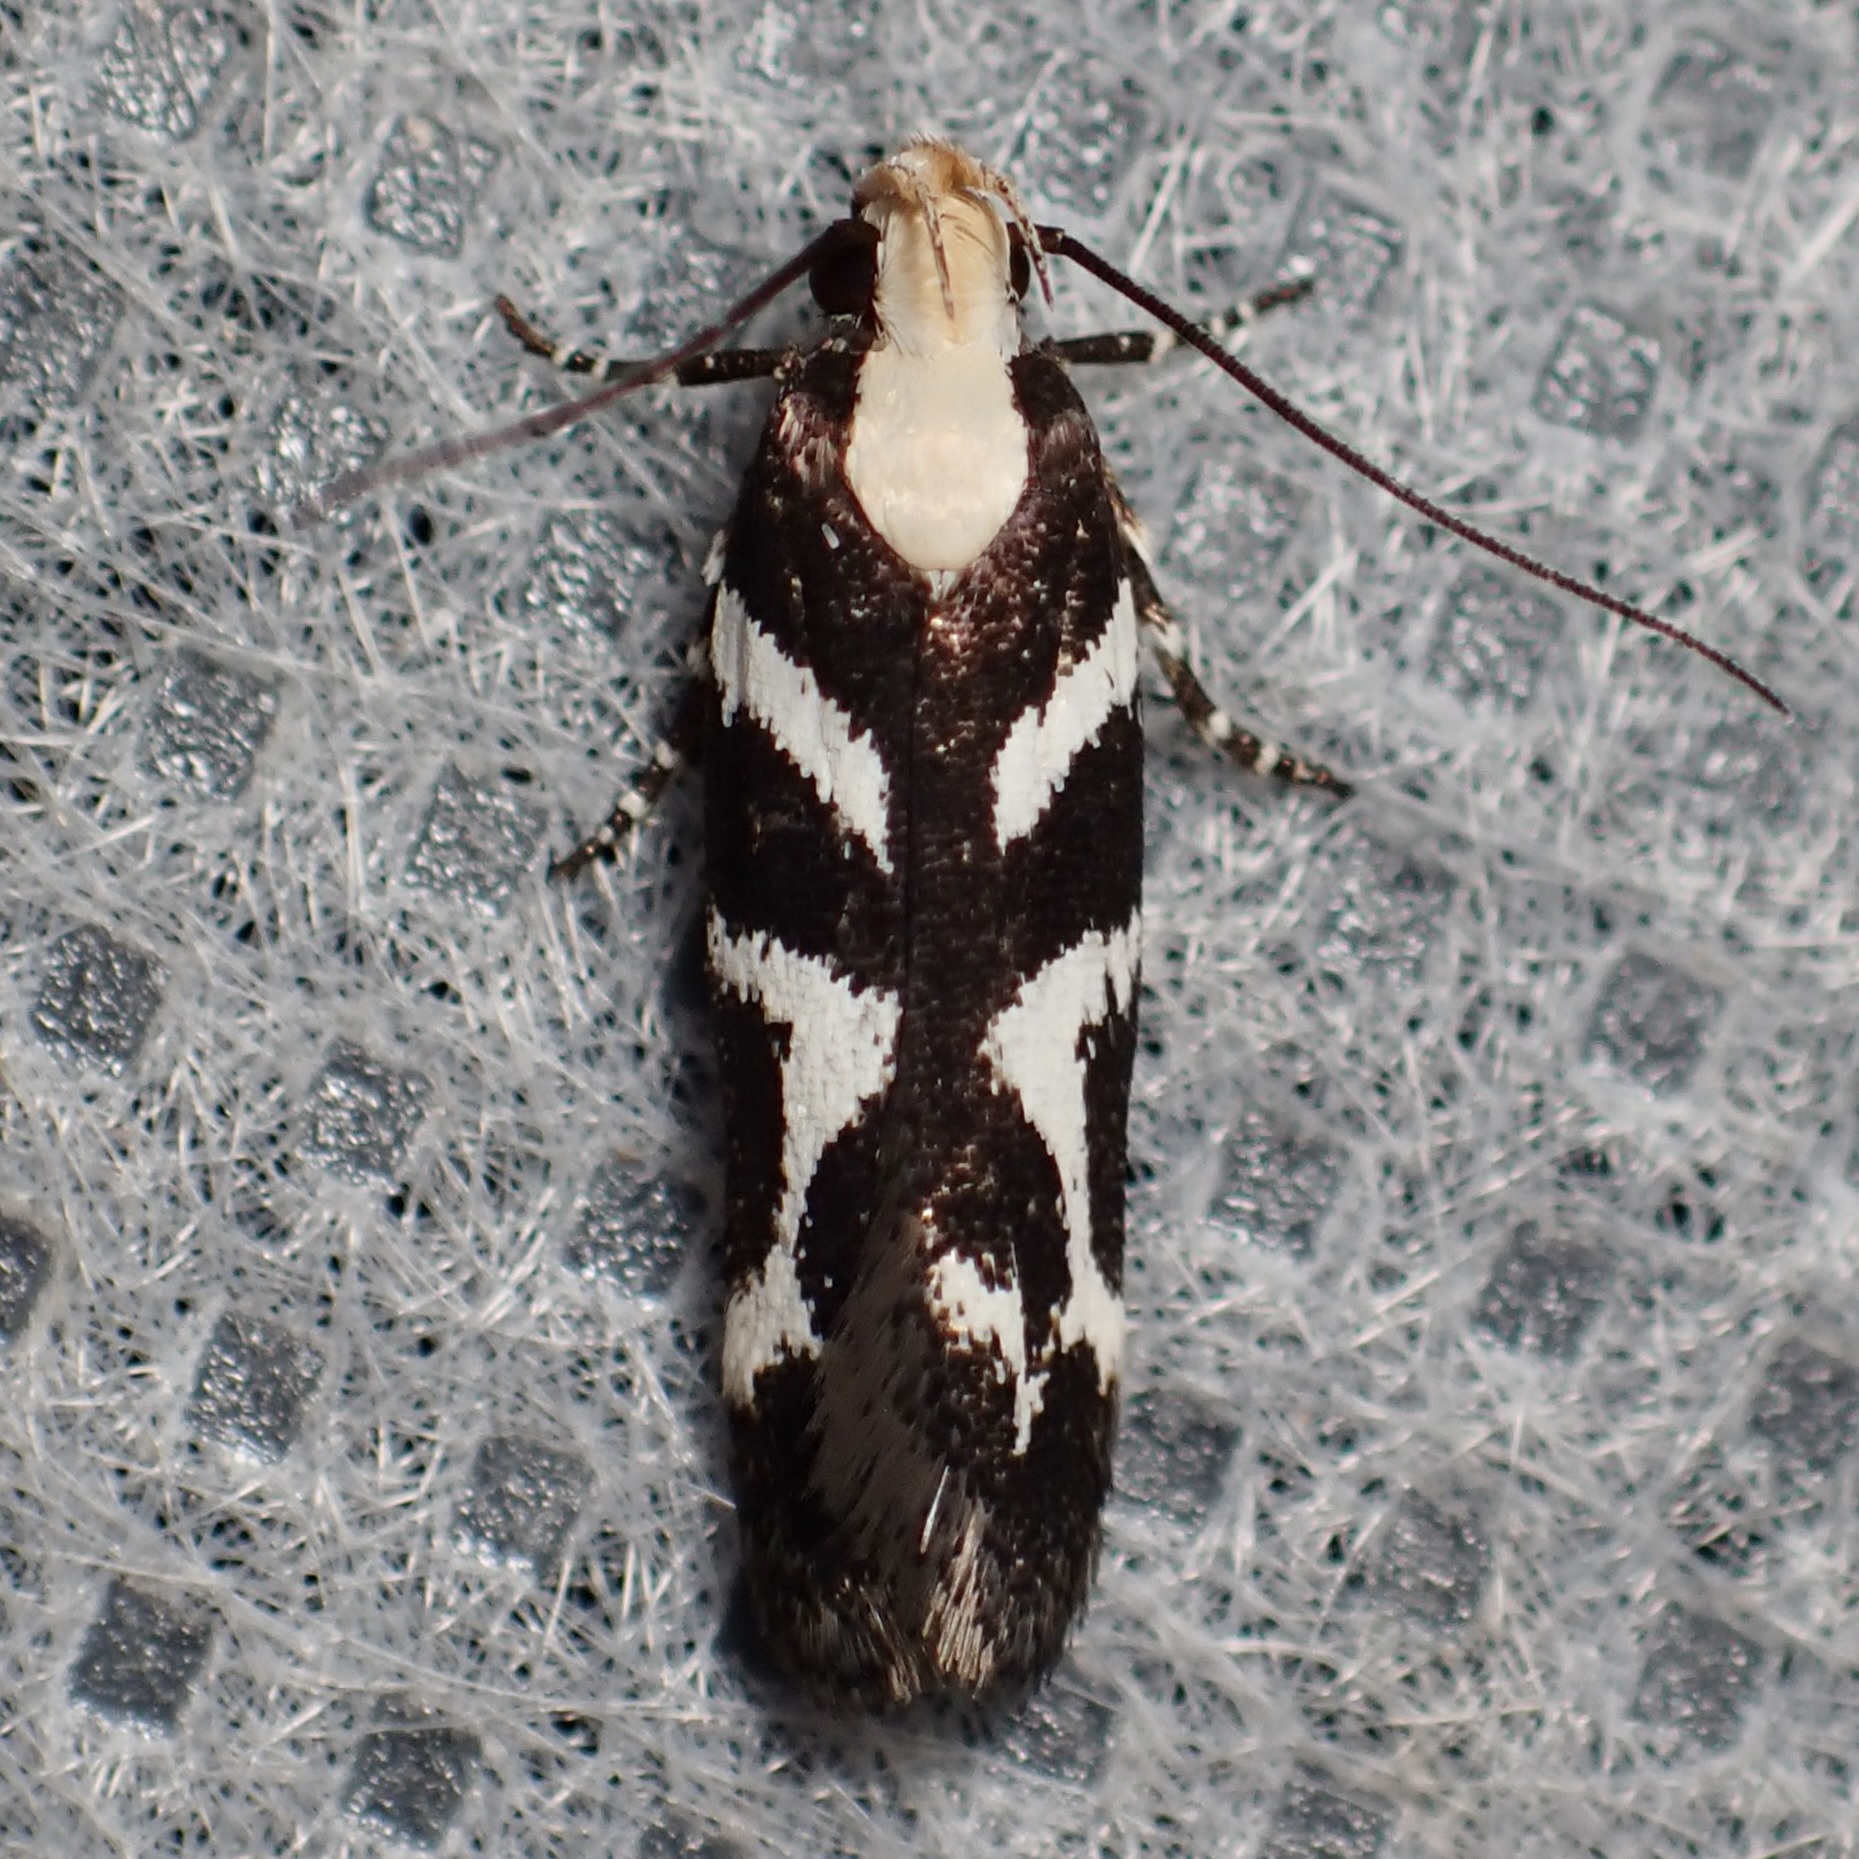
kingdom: Animalia
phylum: Arthropoda
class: Insecta
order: Lepidoptera
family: Gelechiidae
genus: Filatima
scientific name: Filatima albilorella
